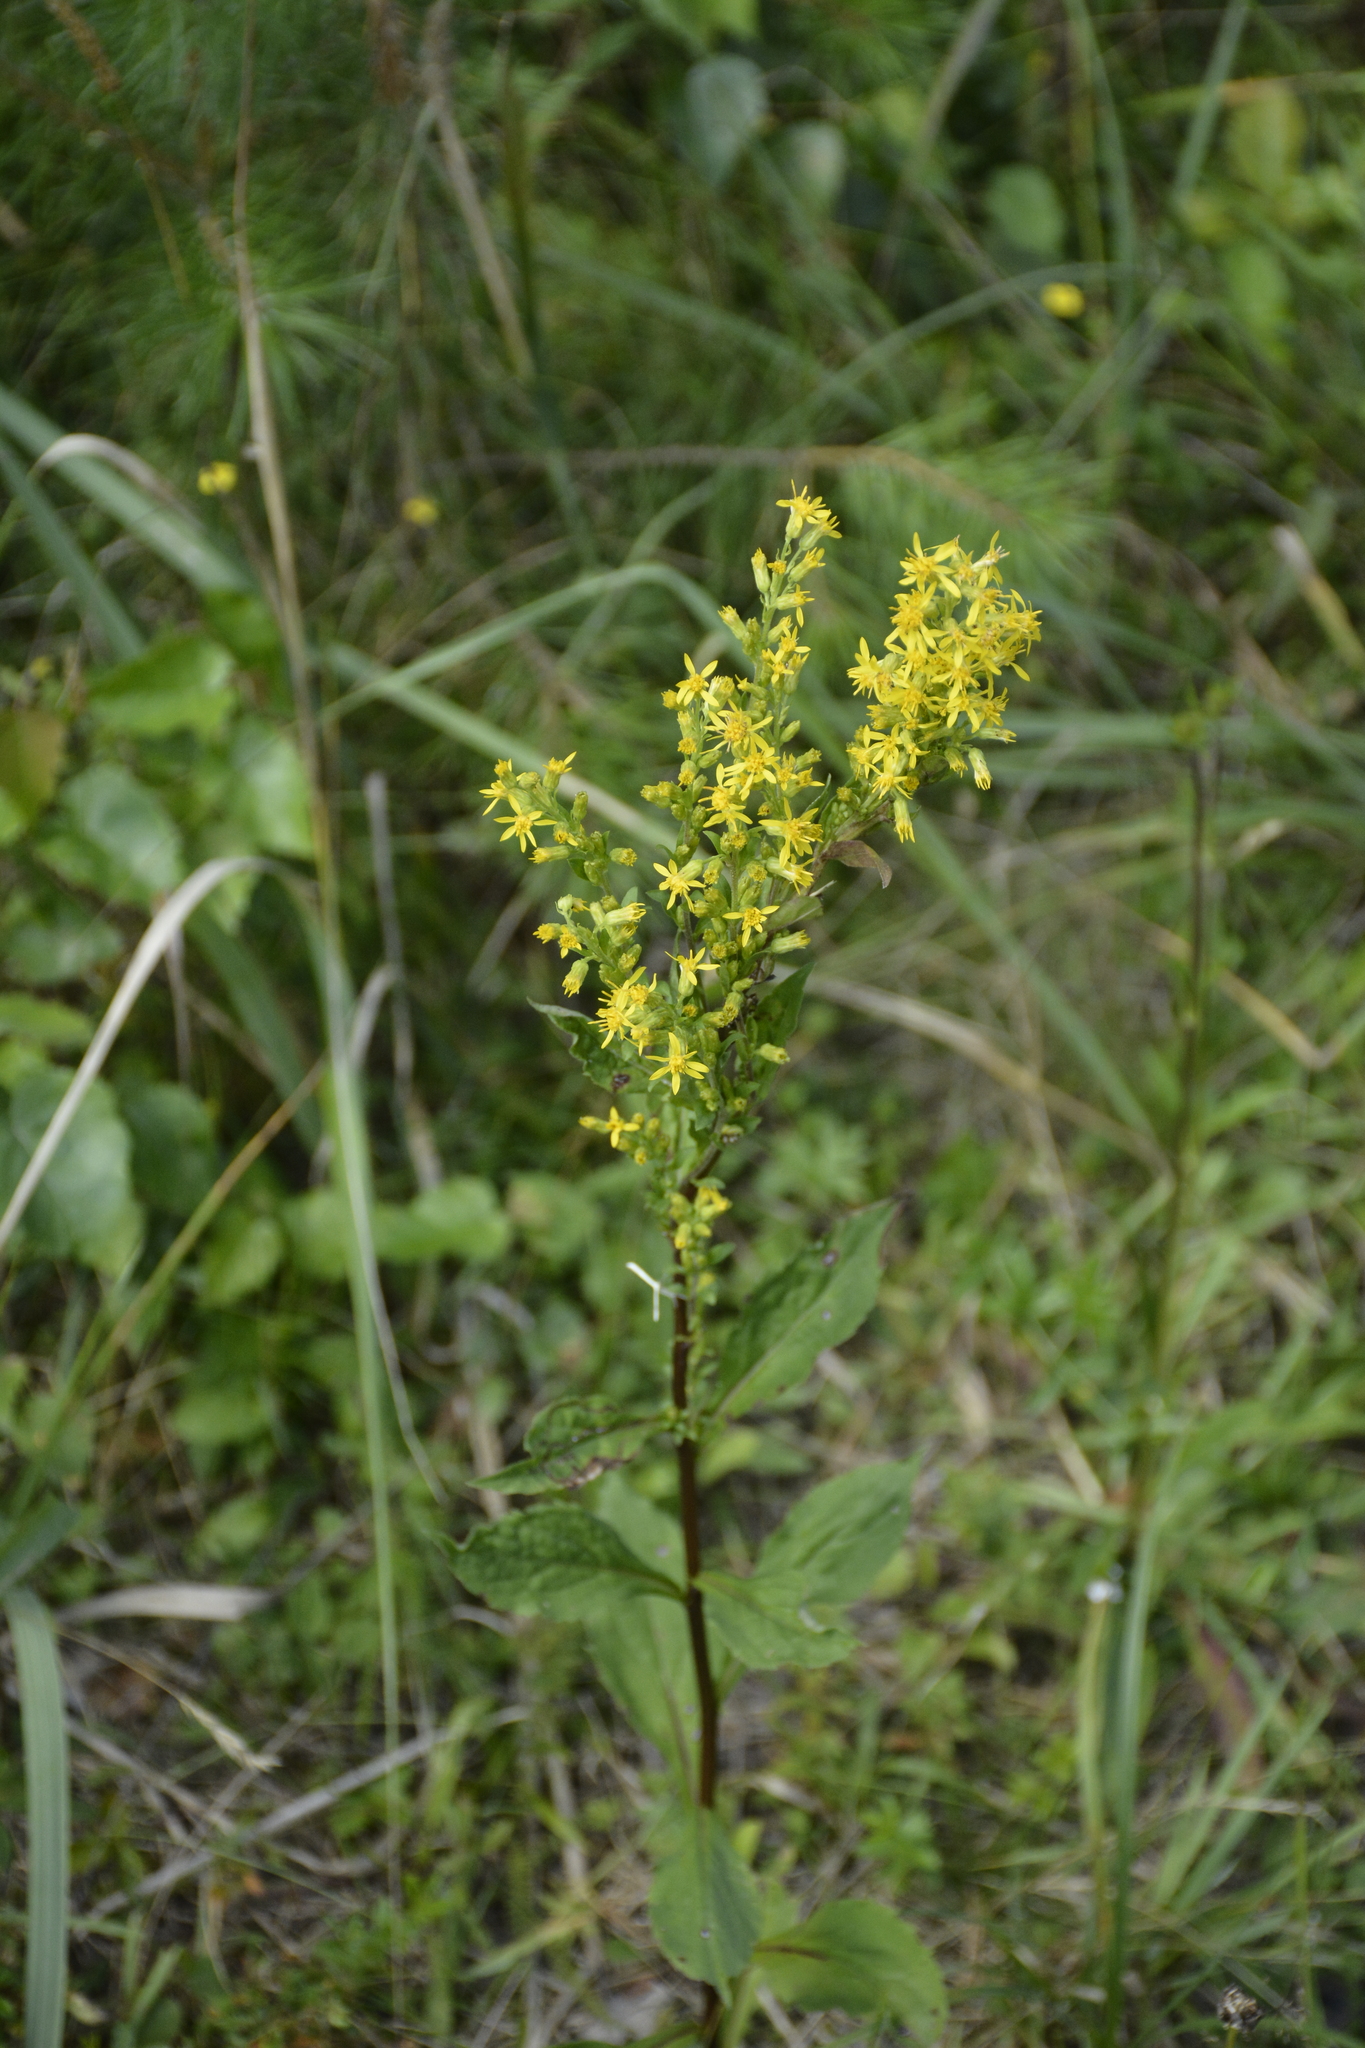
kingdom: Plantae
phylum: Tracheophyta
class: Magnoliopsida
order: Asterales
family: Asteraceae
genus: Solidago
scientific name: Solidago virgaurea
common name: Goldenrod
